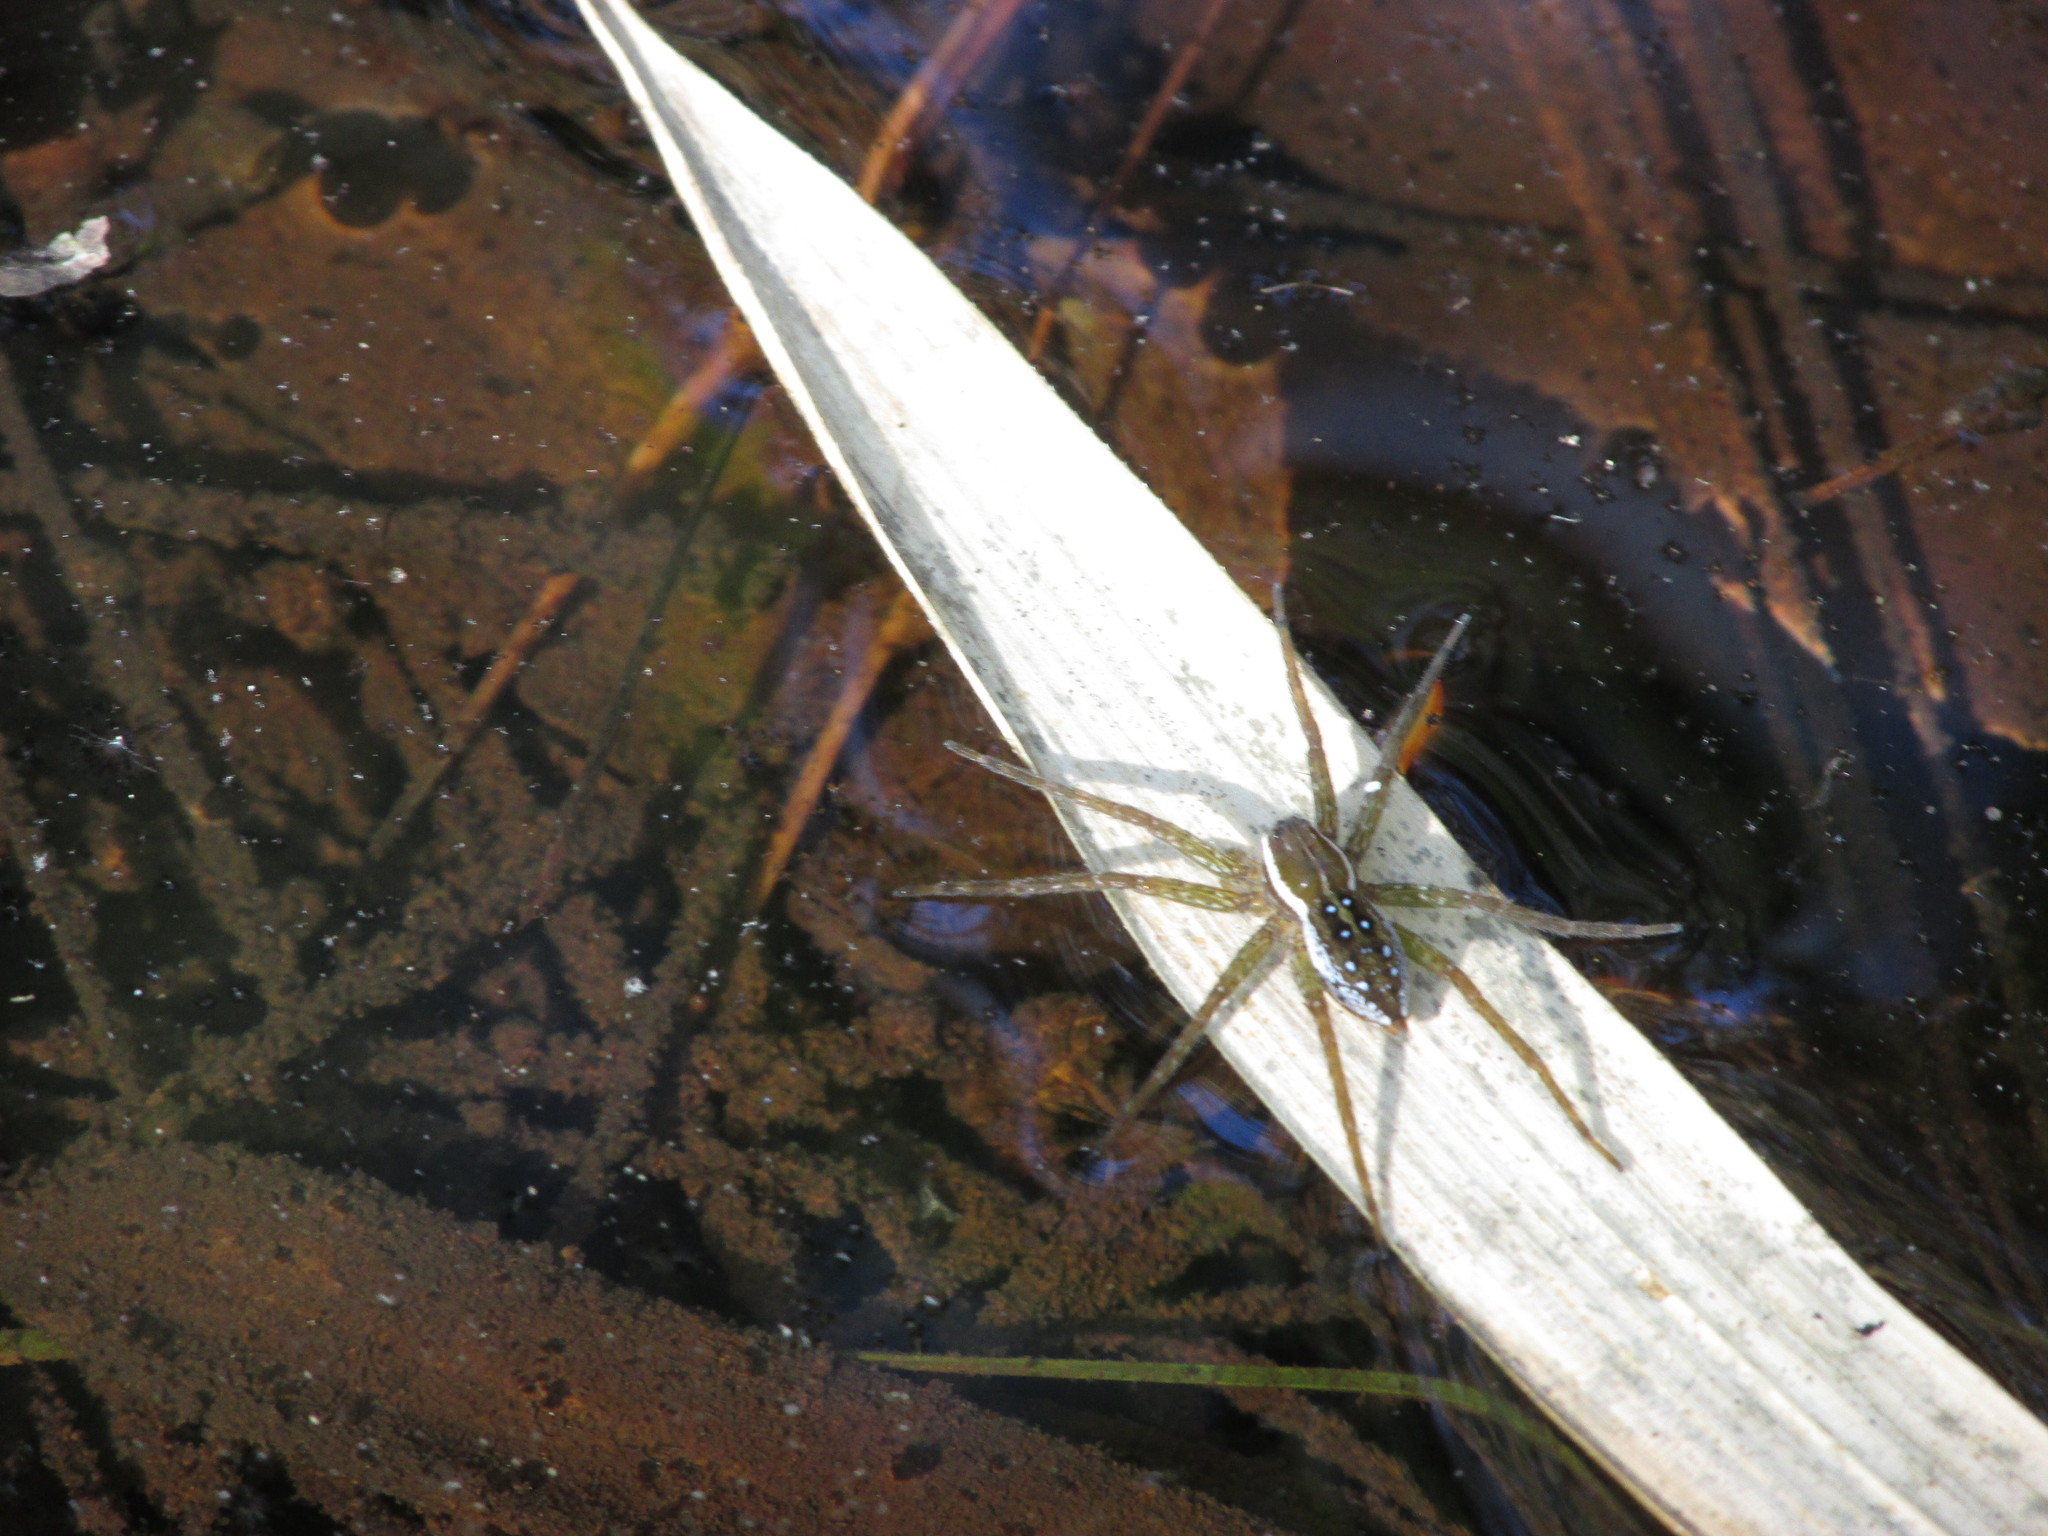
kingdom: Animalia
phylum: Arthropoda
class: Arachnida
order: Araneae
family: Pisauridae
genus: Dolomedes
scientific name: Dolomedes triton
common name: Six-spotted fishing spider
